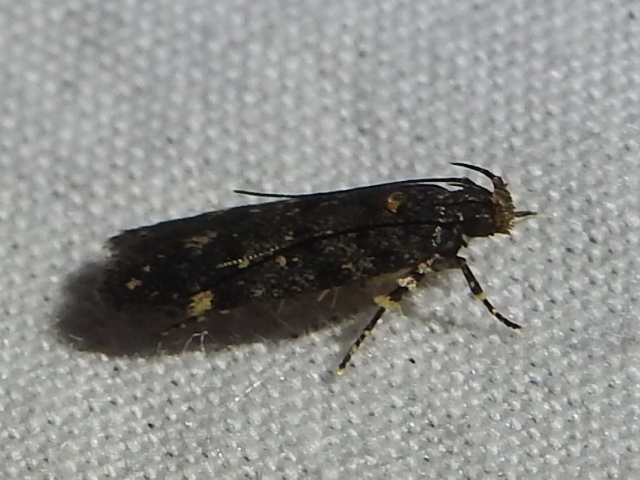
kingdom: Animalia
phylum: Arthropoda
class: Insecta
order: Lepidoptera
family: Gelechiidae
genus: Chionodes
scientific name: Chionodes bicostomaculella
